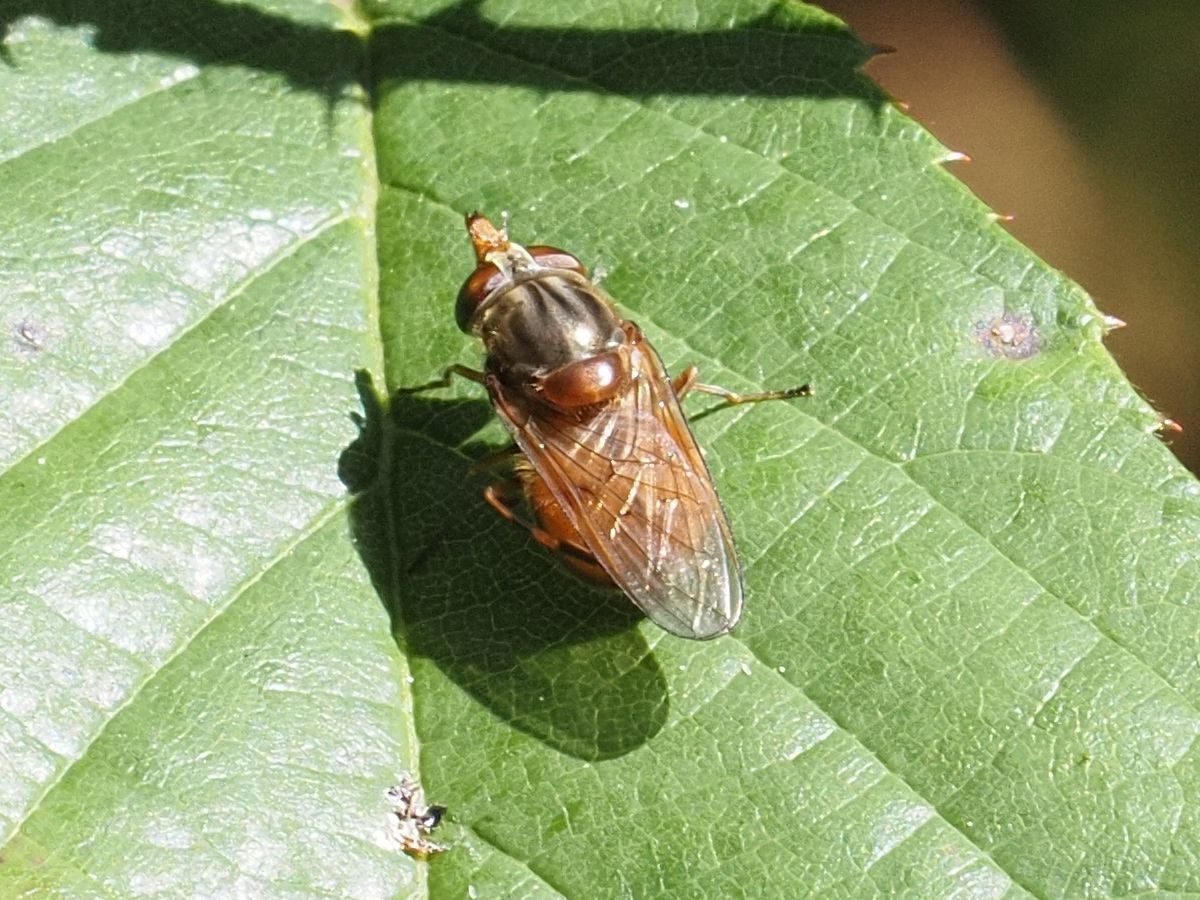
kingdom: Animalia
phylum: Arthropoda
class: Insecta
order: Diptera
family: Syrphidae
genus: Rhingia
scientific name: Rhingia campestris
